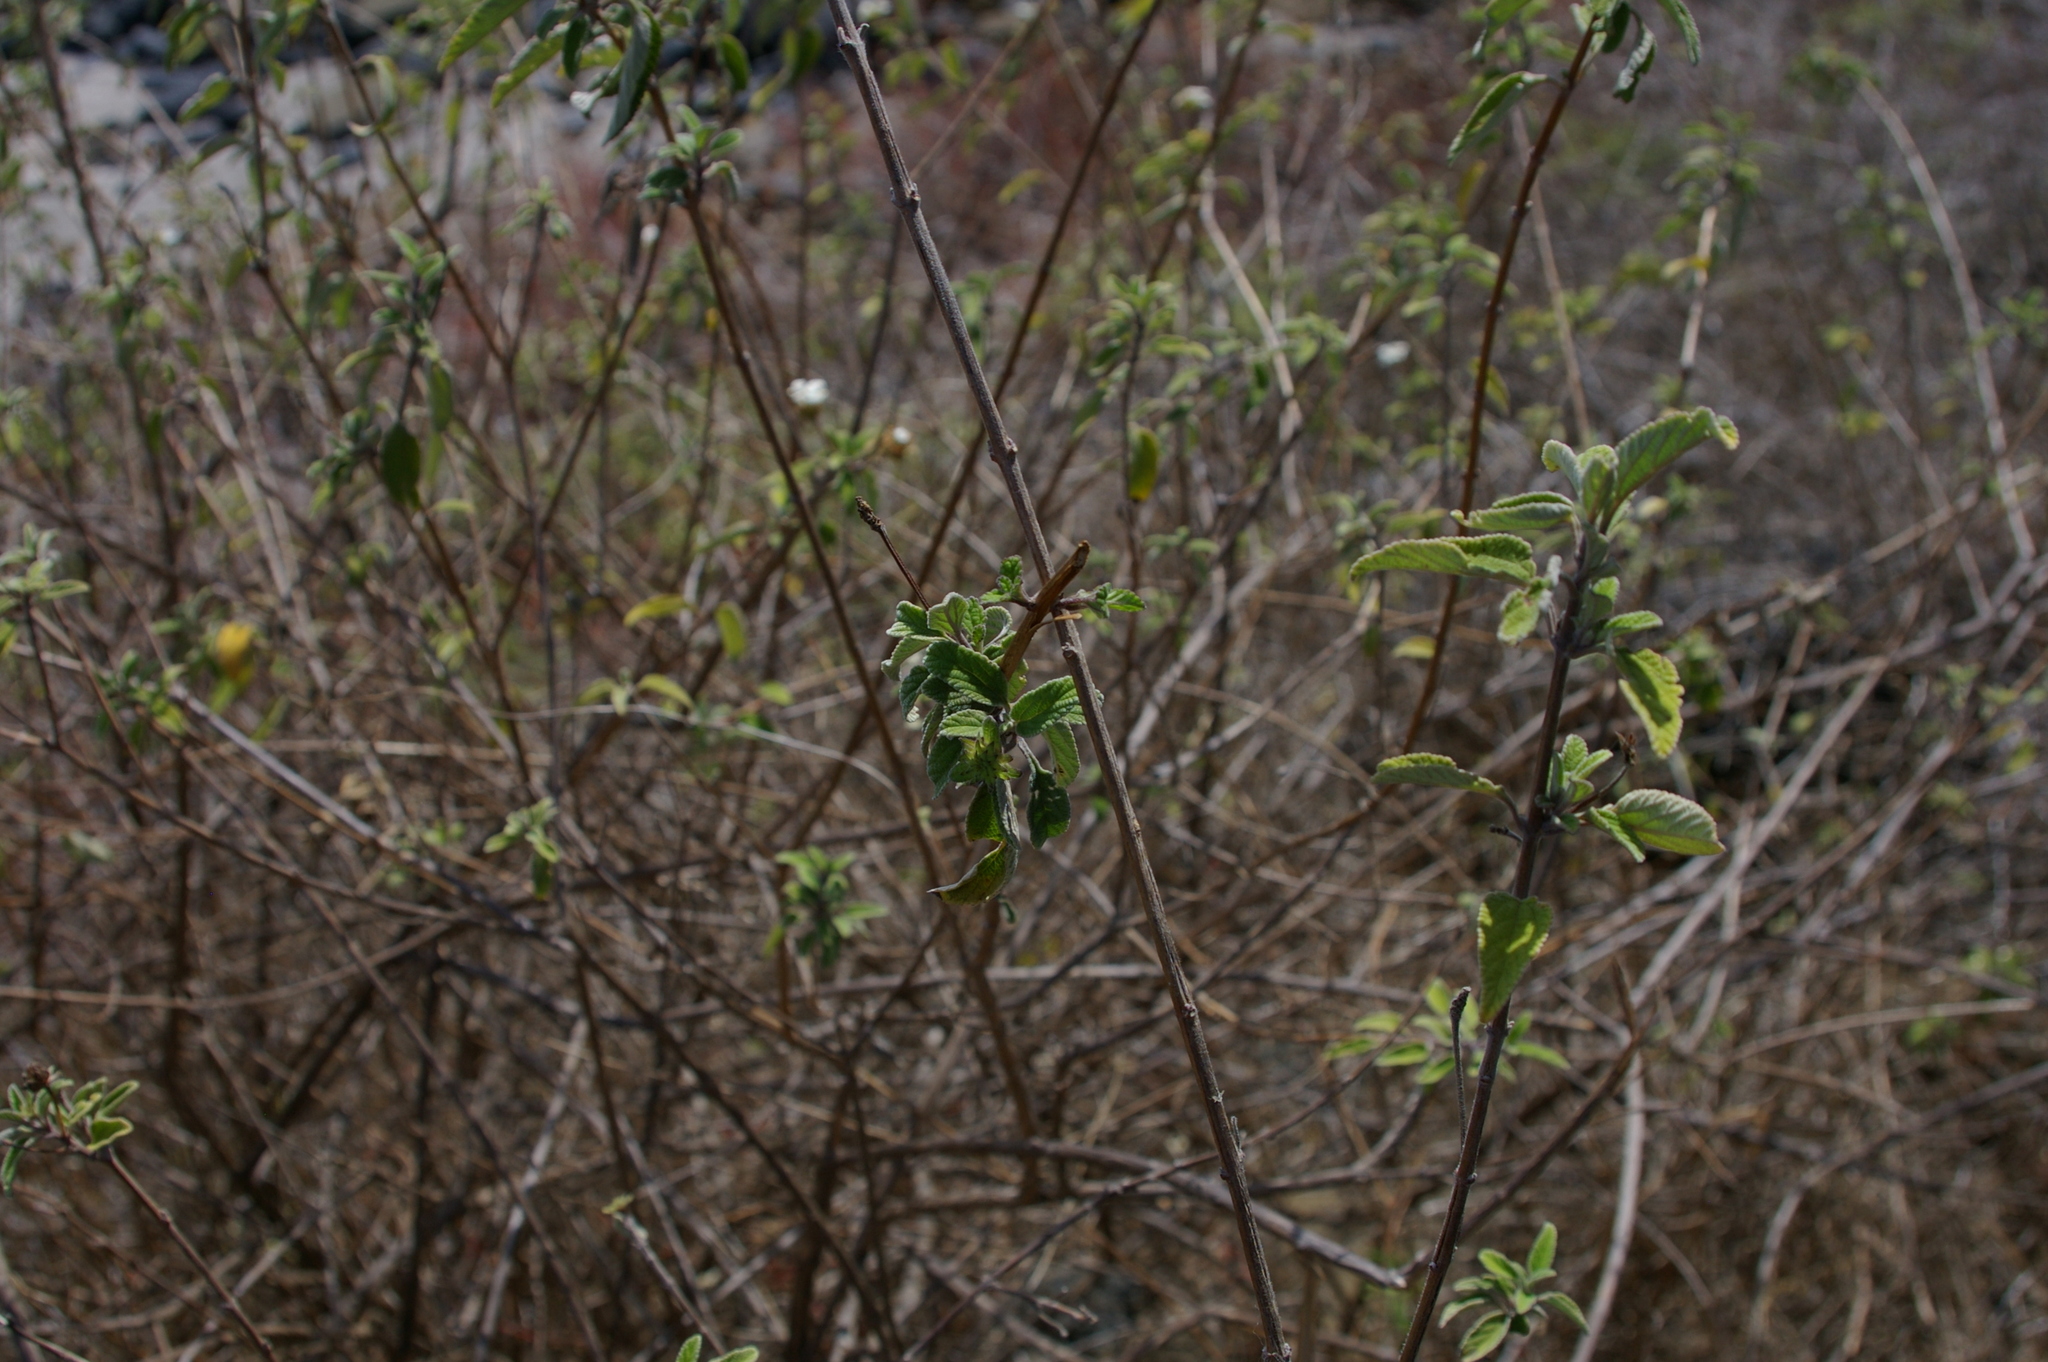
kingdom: Plantae
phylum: Tracheophyta
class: Magnoliopsida
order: Lamiales
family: Verbenaceae
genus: Lantana
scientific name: Lantana peduncularis
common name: Galapagos lantana
